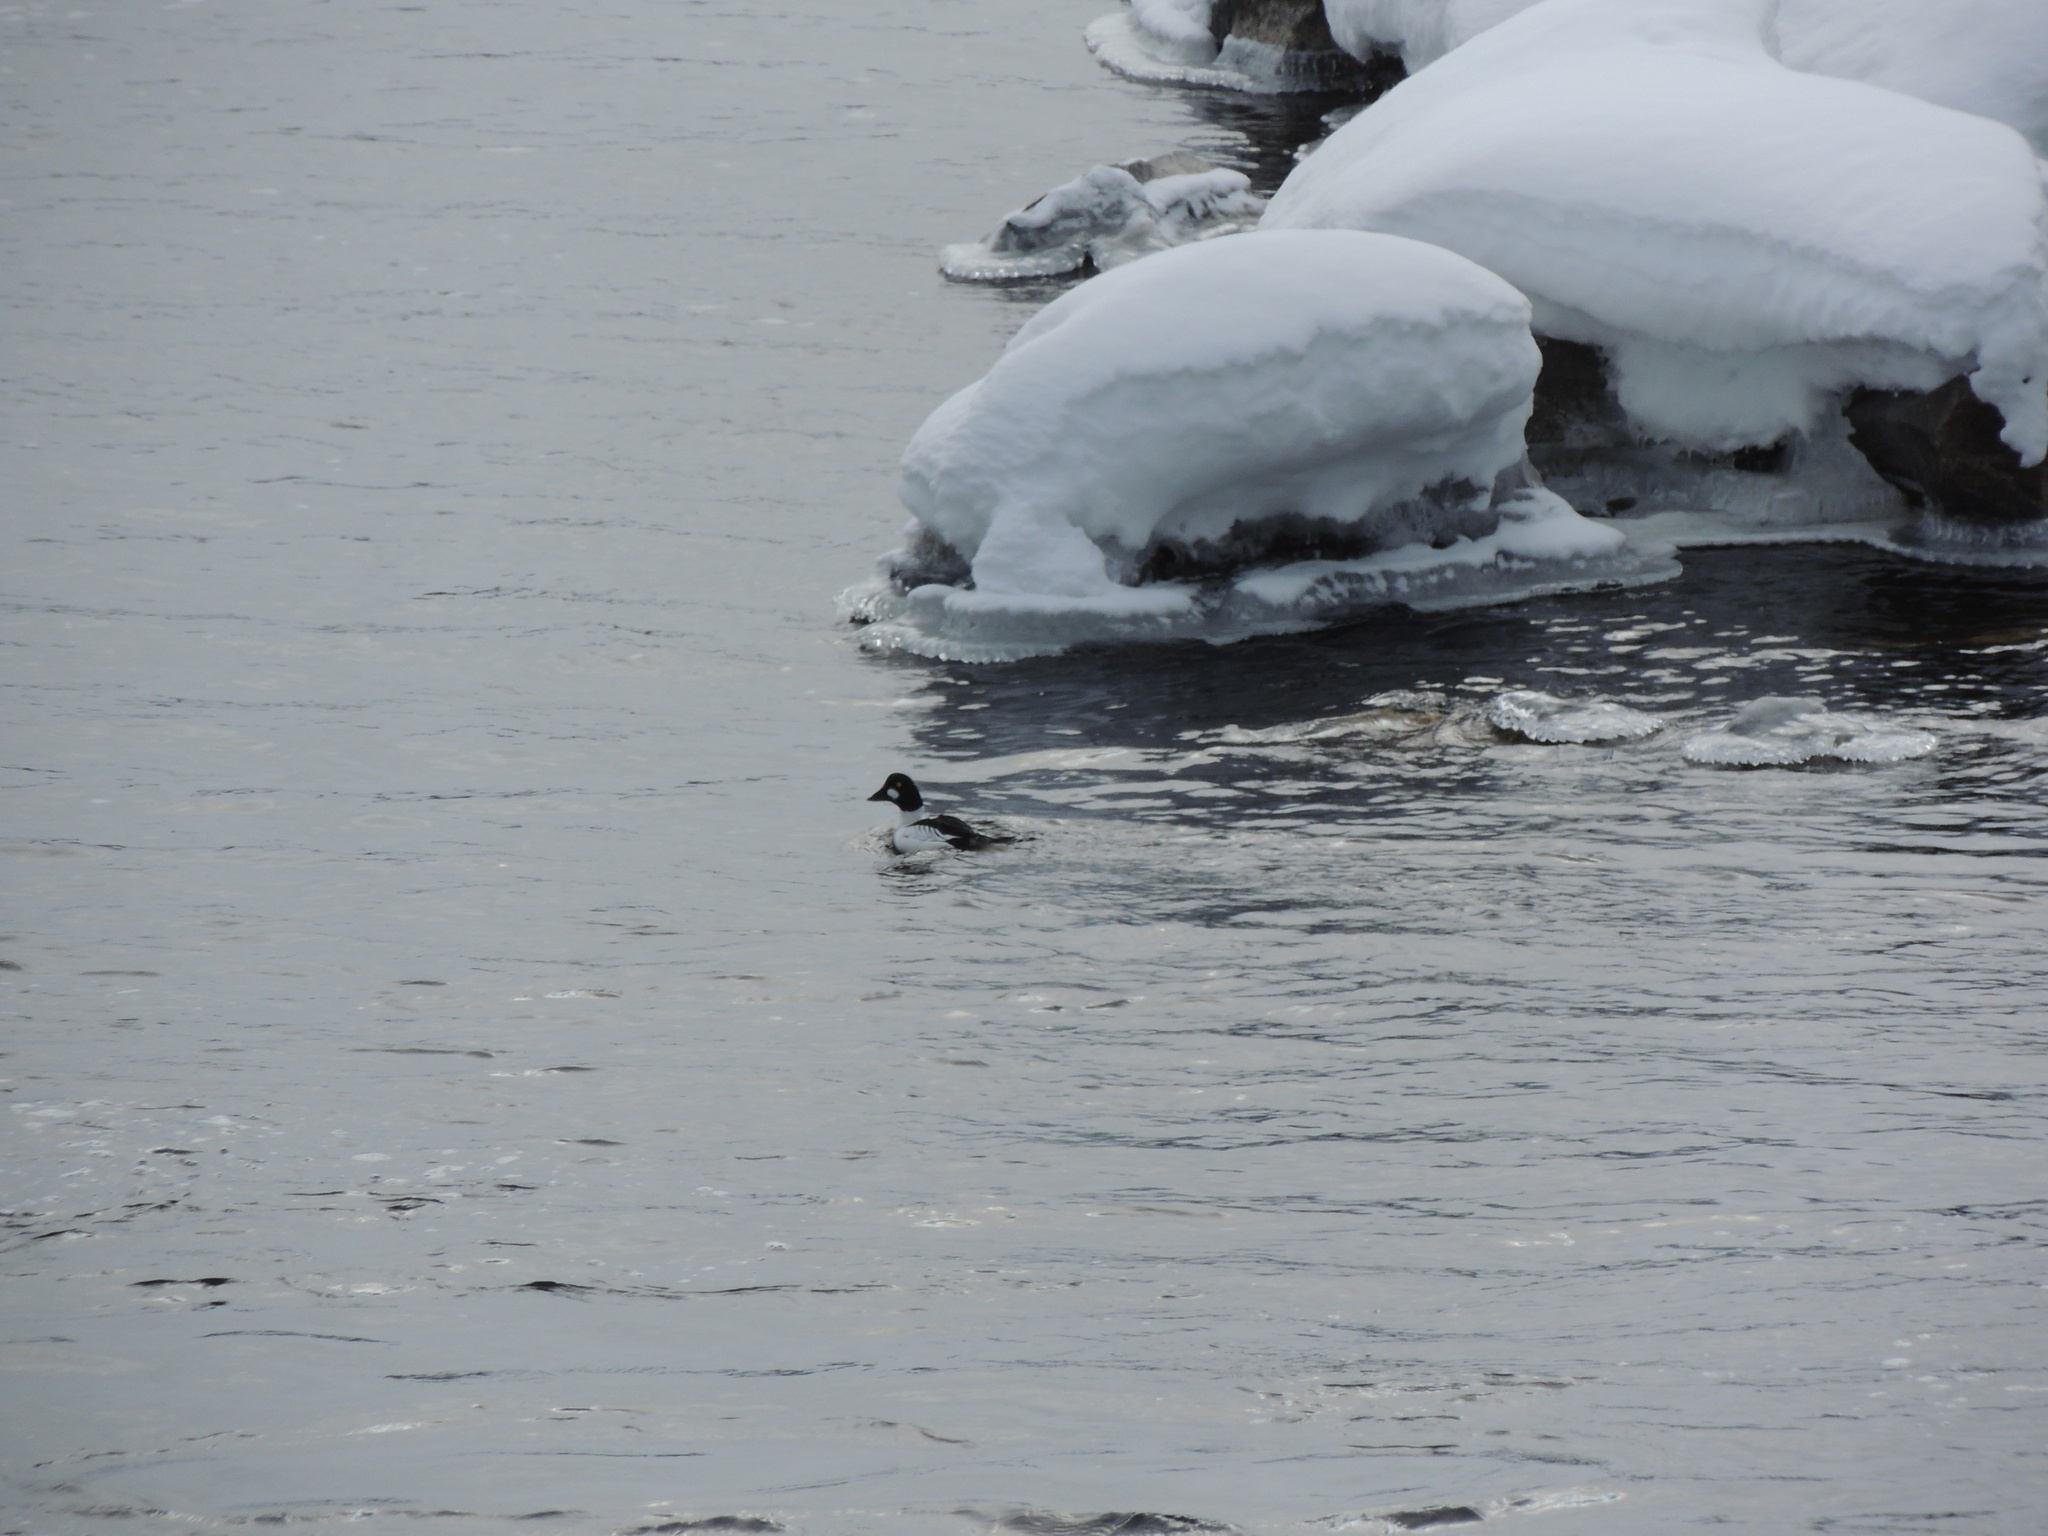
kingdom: Animalia
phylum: Chordata
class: Aves
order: Anseriformes
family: Anatidae
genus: Bucephala
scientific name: Bucephala clangula
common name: Common goldeneye
